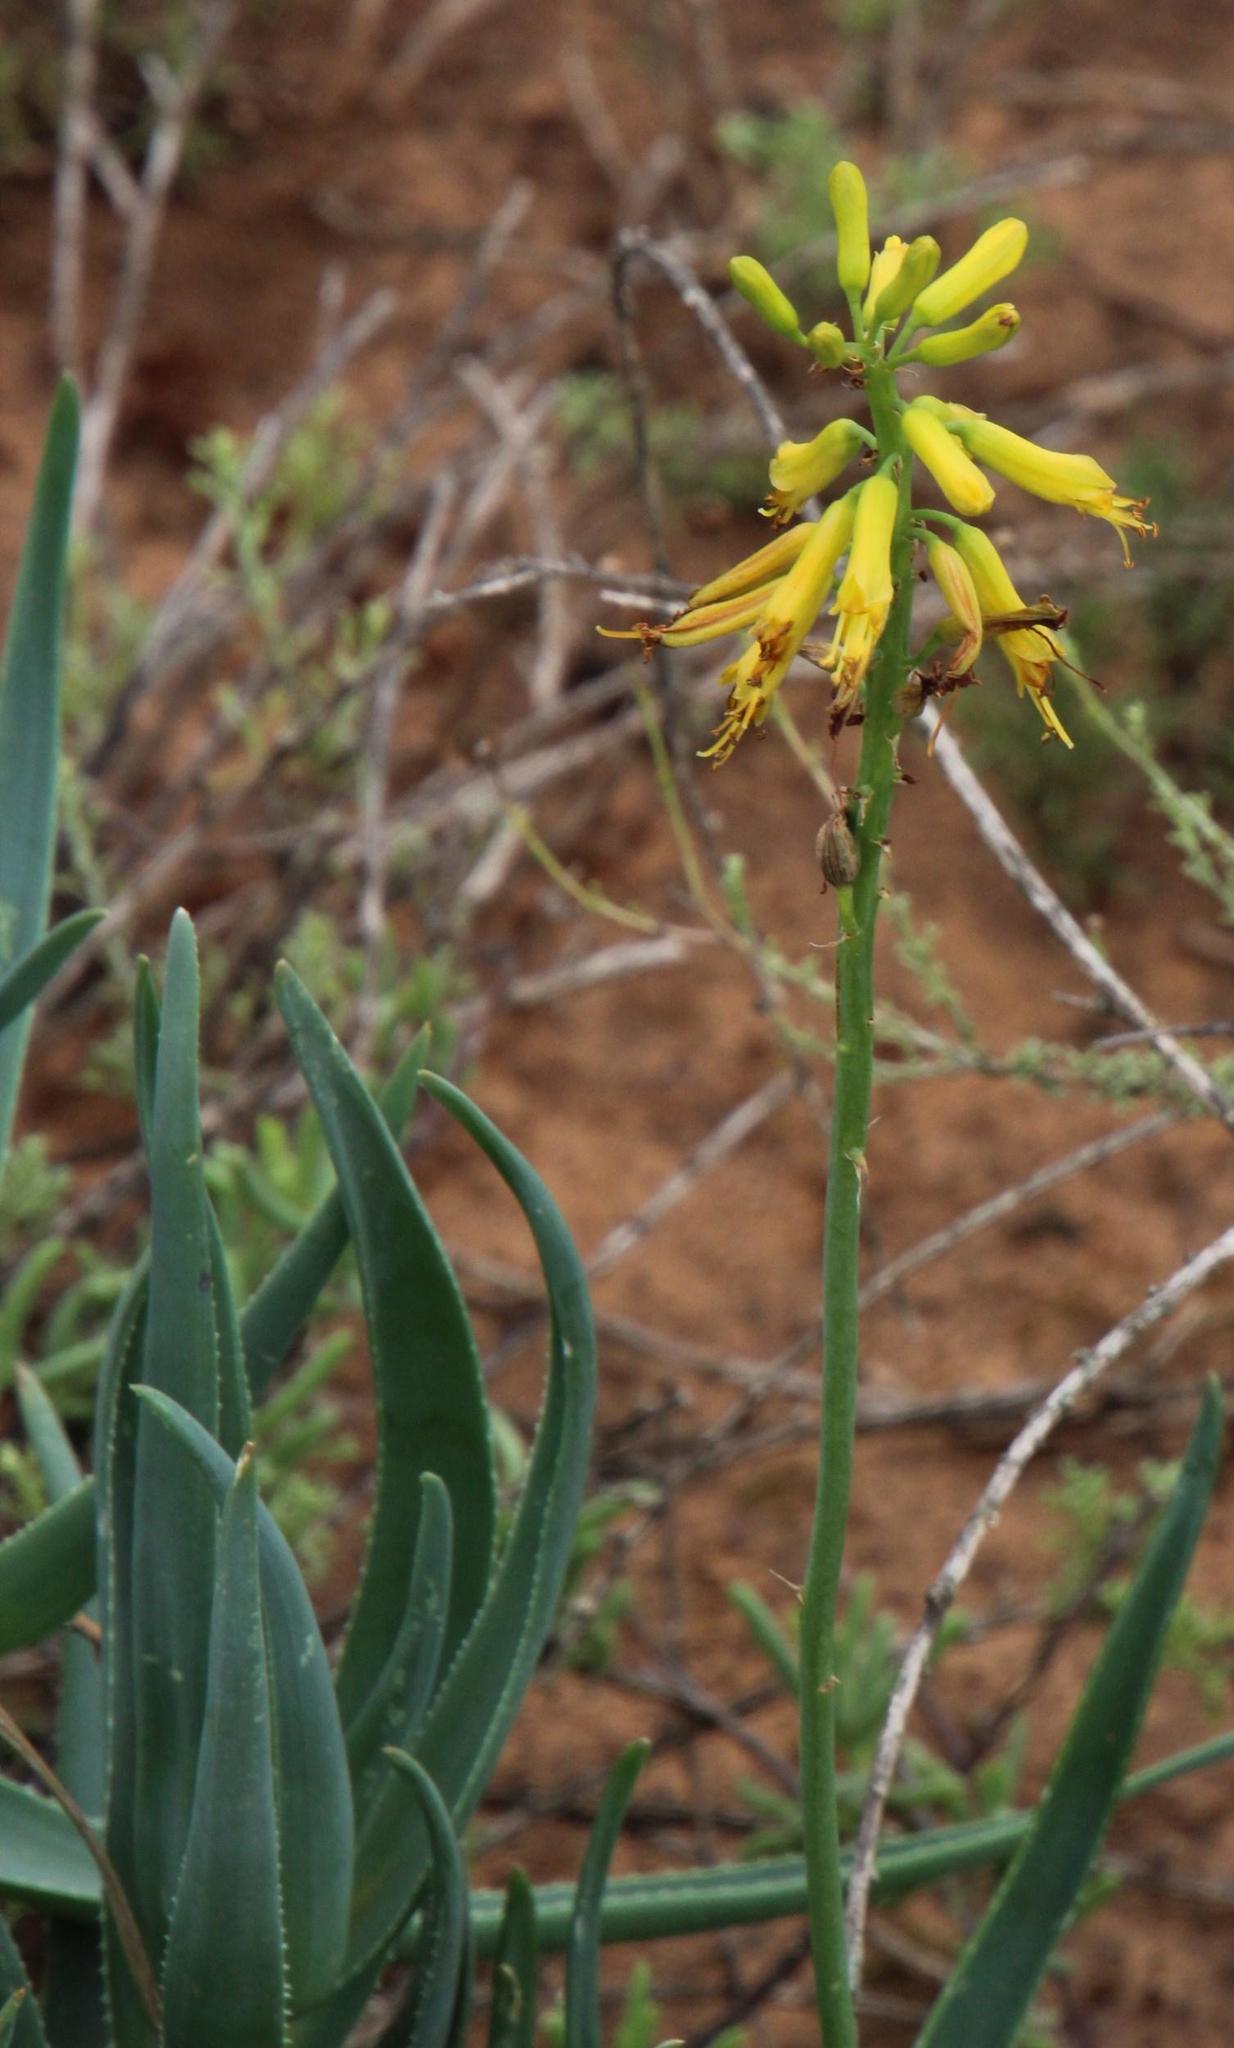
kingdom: Plantae
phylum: Tracheophyta
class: Liliopsida
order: Asparagales
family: Asphodelaceae
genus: Aloiampelos
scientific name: Aloiampelos tenuior
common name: Fence aloe
